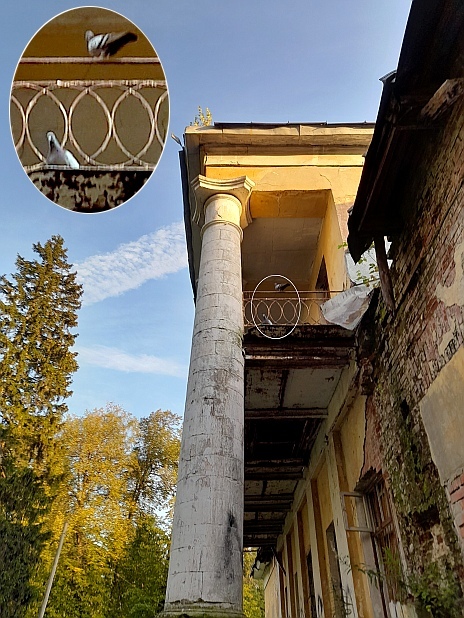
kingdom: Animalia
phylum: Chordata
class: Aves
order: Columbiformes
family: Columbidae
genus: Columba
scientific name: Columba livia
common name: Rock pigeon
